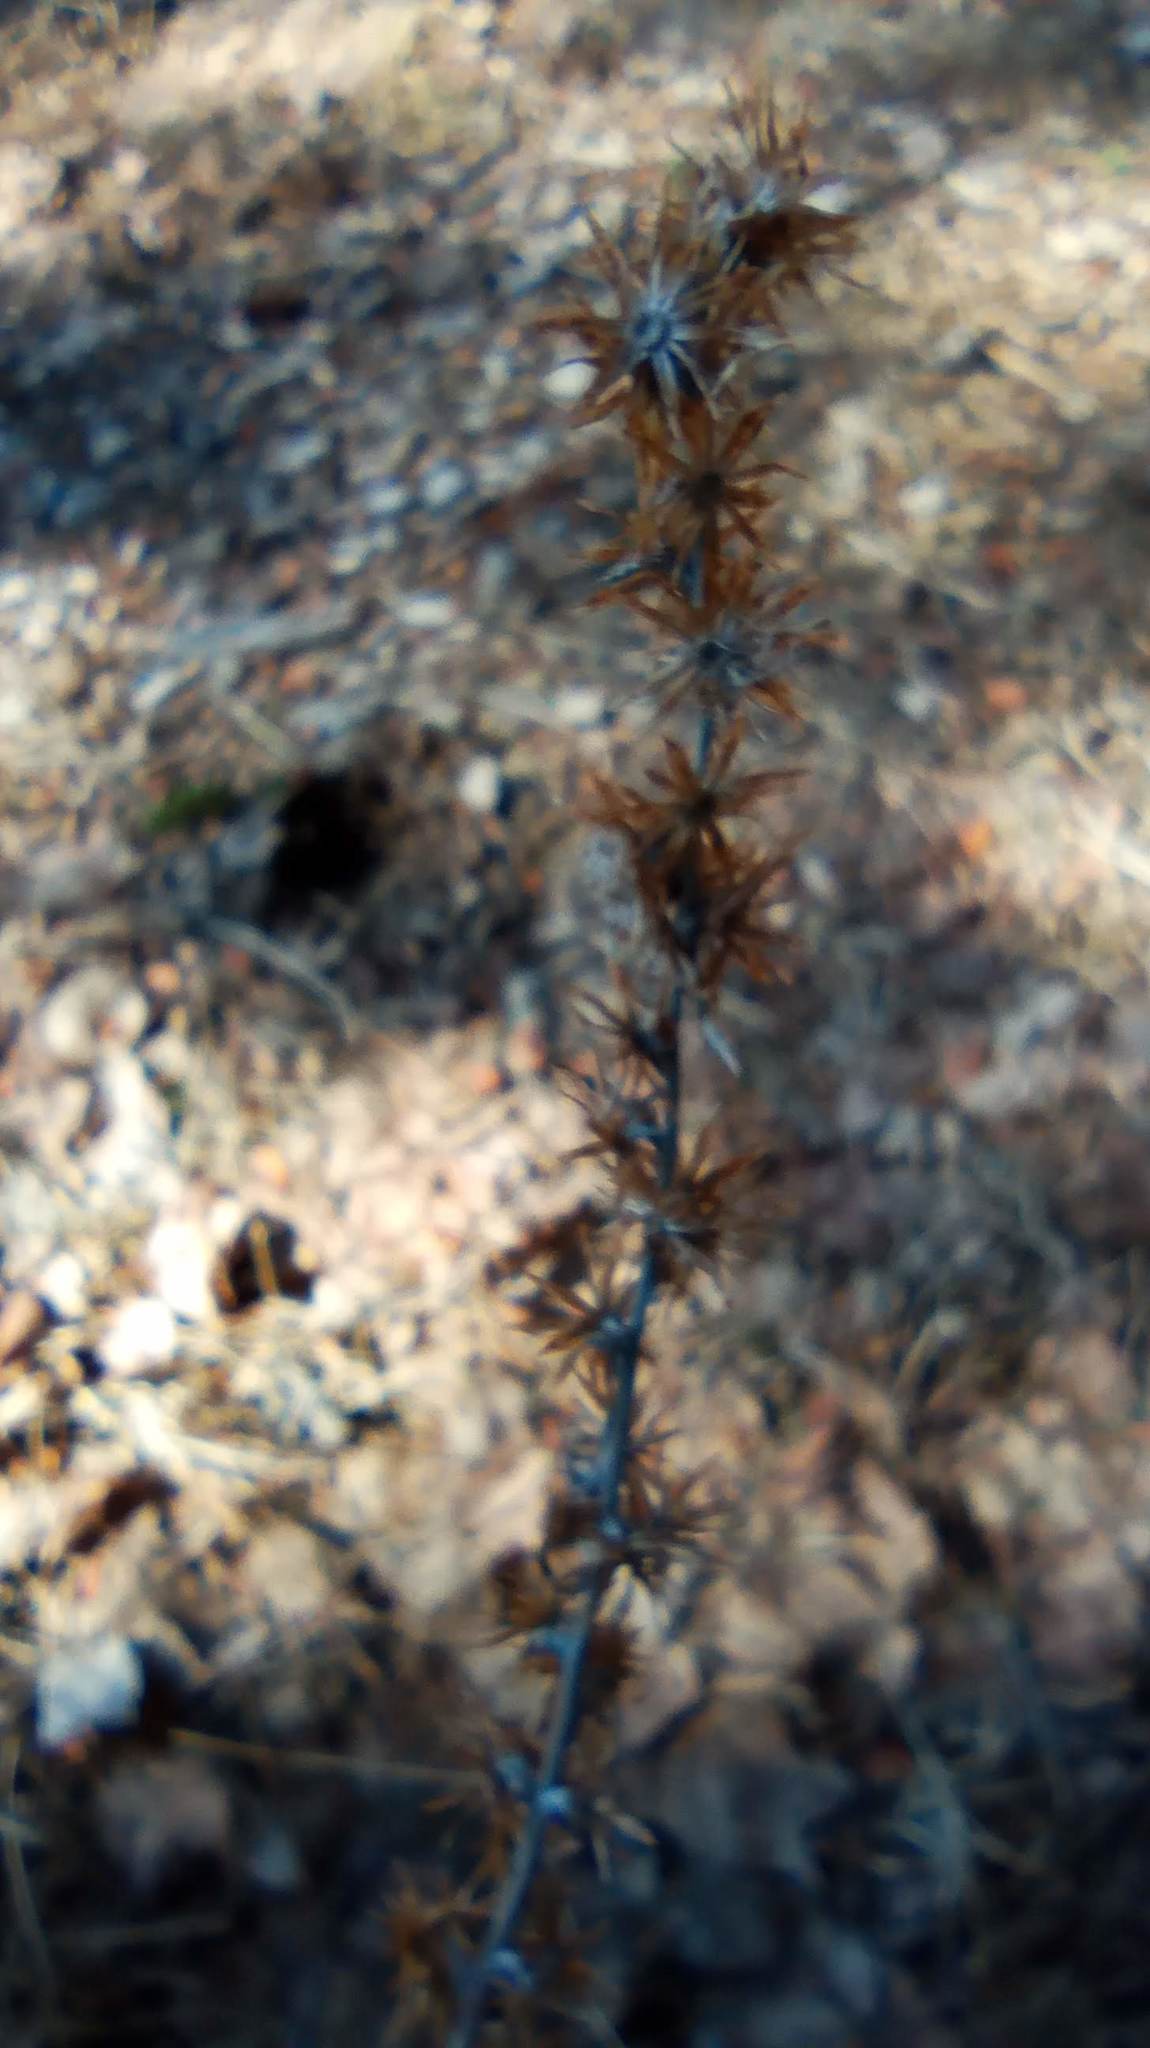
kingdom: Plantae
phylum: Tracheophyta
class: Magnoliopsida
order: Asterales
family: Asteraceae
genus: Omalotheca
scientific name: Omalotheca sylvatica
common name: Heath cudweed
